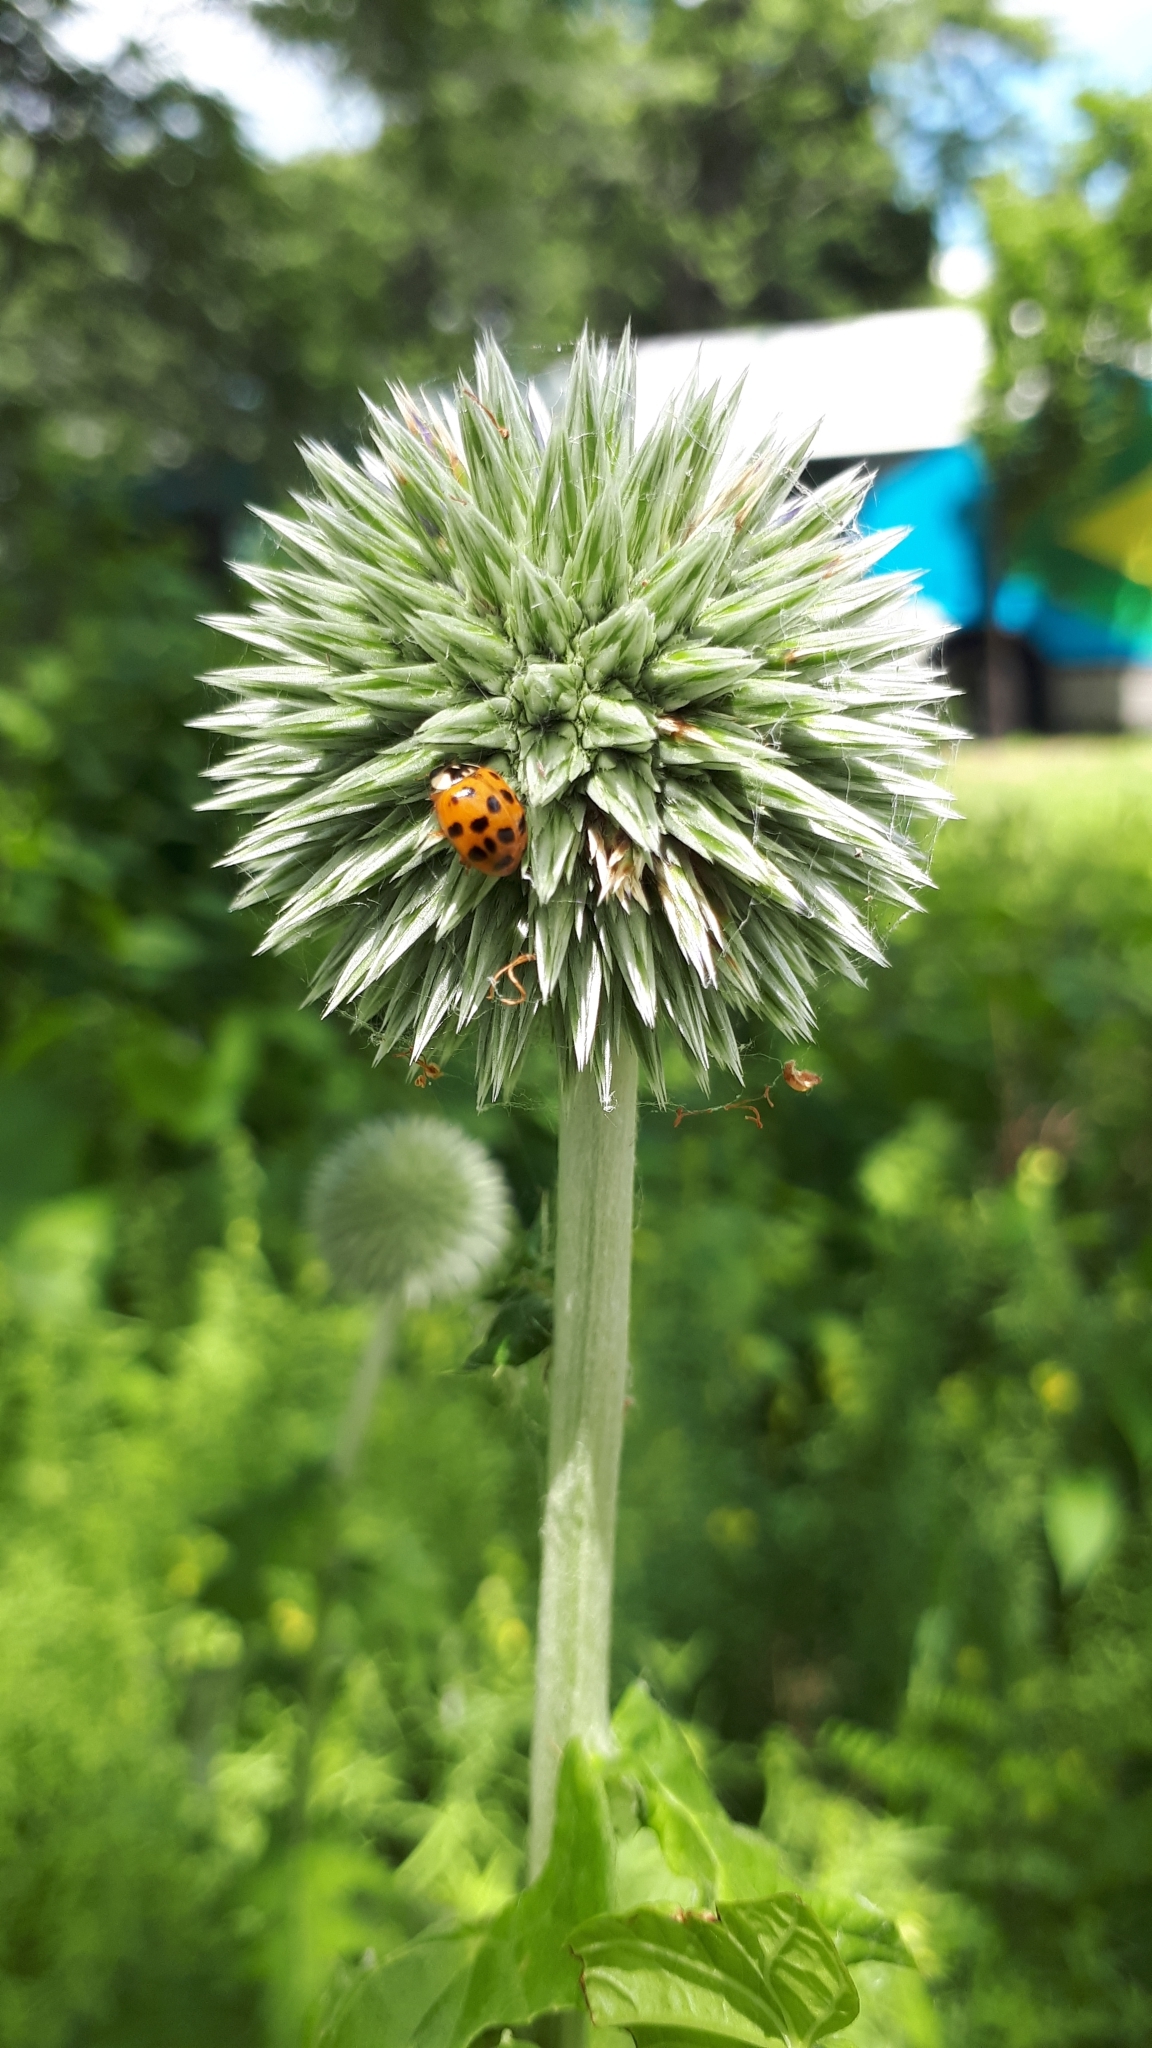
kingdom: Animalia
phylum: Arthropoda
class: Insecta
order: Coleoptera
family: Coccinellidae
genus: Harmonia
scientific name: Harmonia axyridis
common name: Harlequin ladybird
